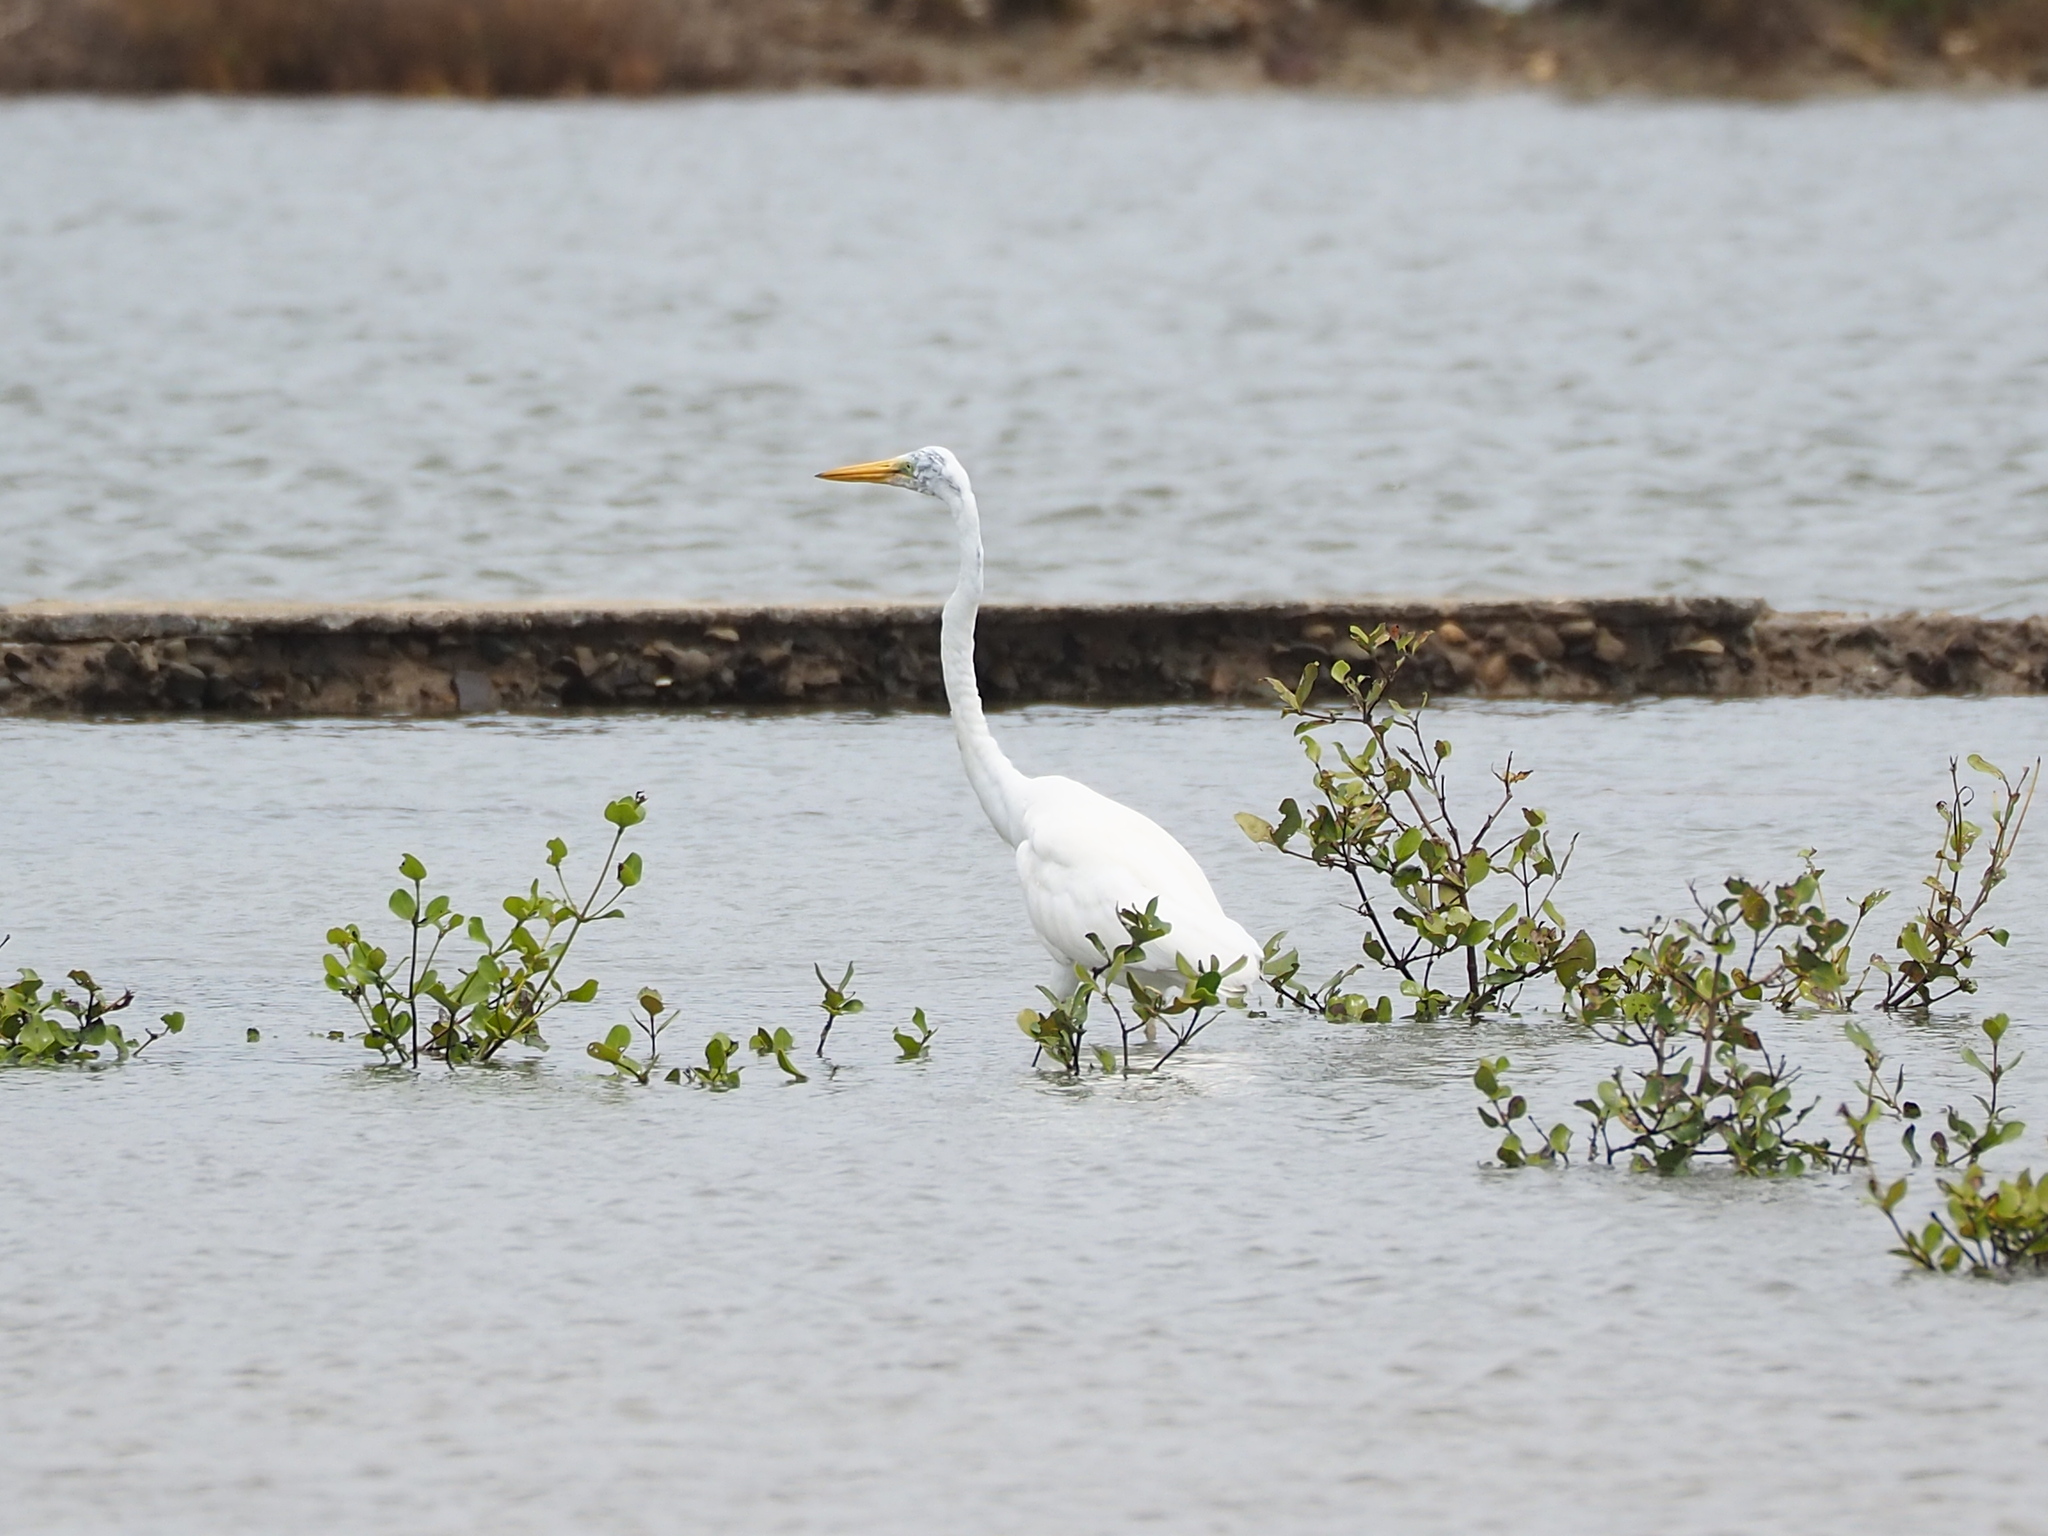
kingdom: Animalia
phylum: Chordata
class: Aves
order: Pelecaniformes
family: Ardeidae
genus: Ardea
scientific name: Ardea alba
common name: Great egret
